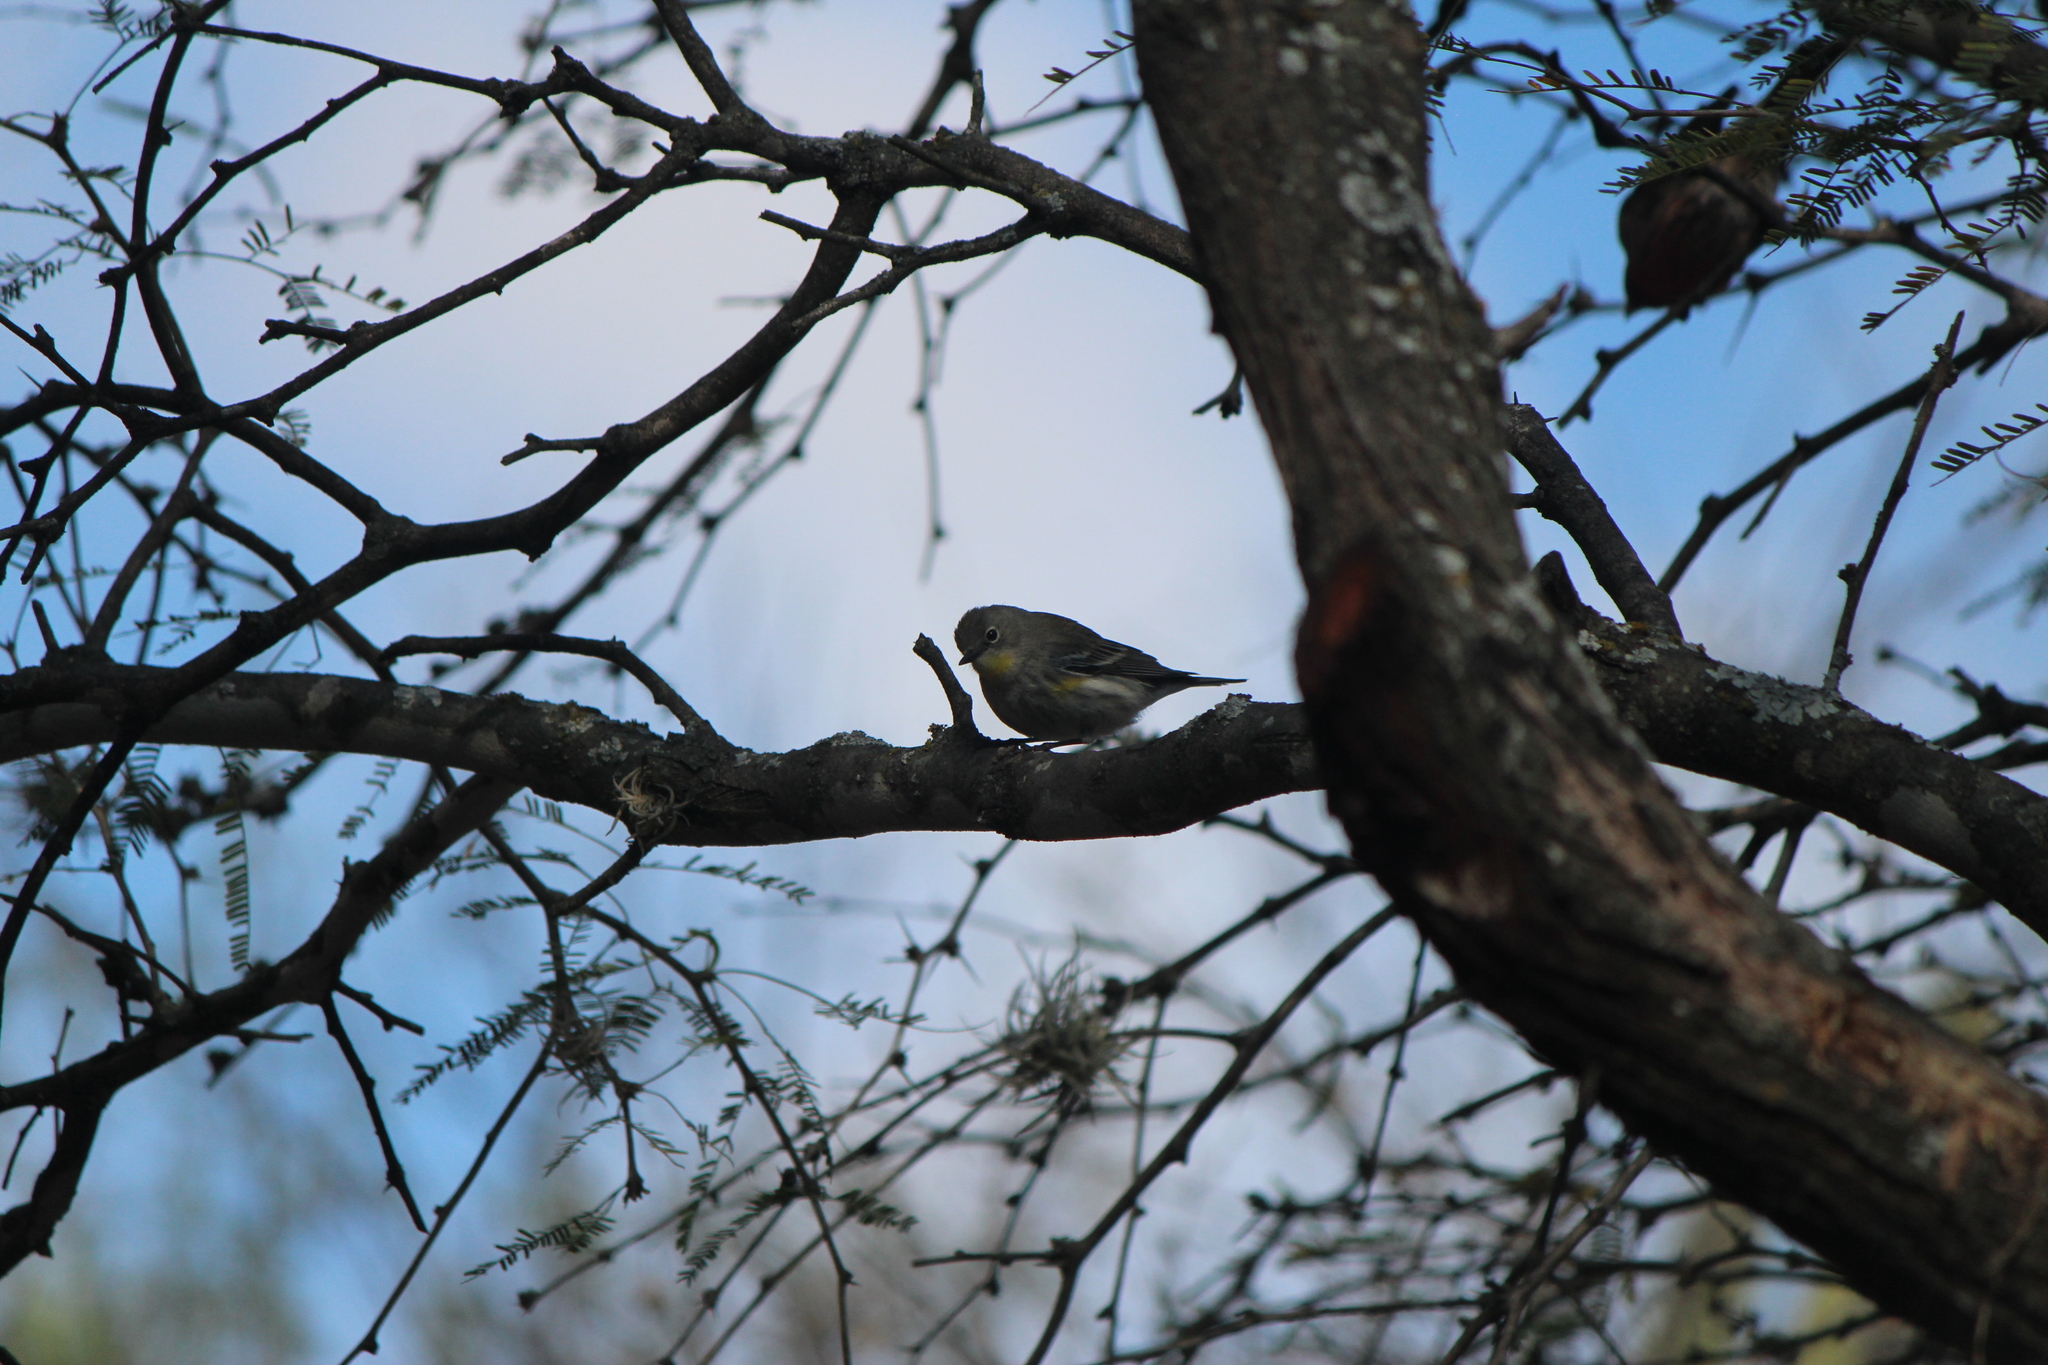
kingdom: Animalia
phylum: Chordata
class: Aves
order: Passeriformes
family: Parulidae
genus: Setophaga
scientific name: Setophaga auduboni
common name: Audubon's warbler
